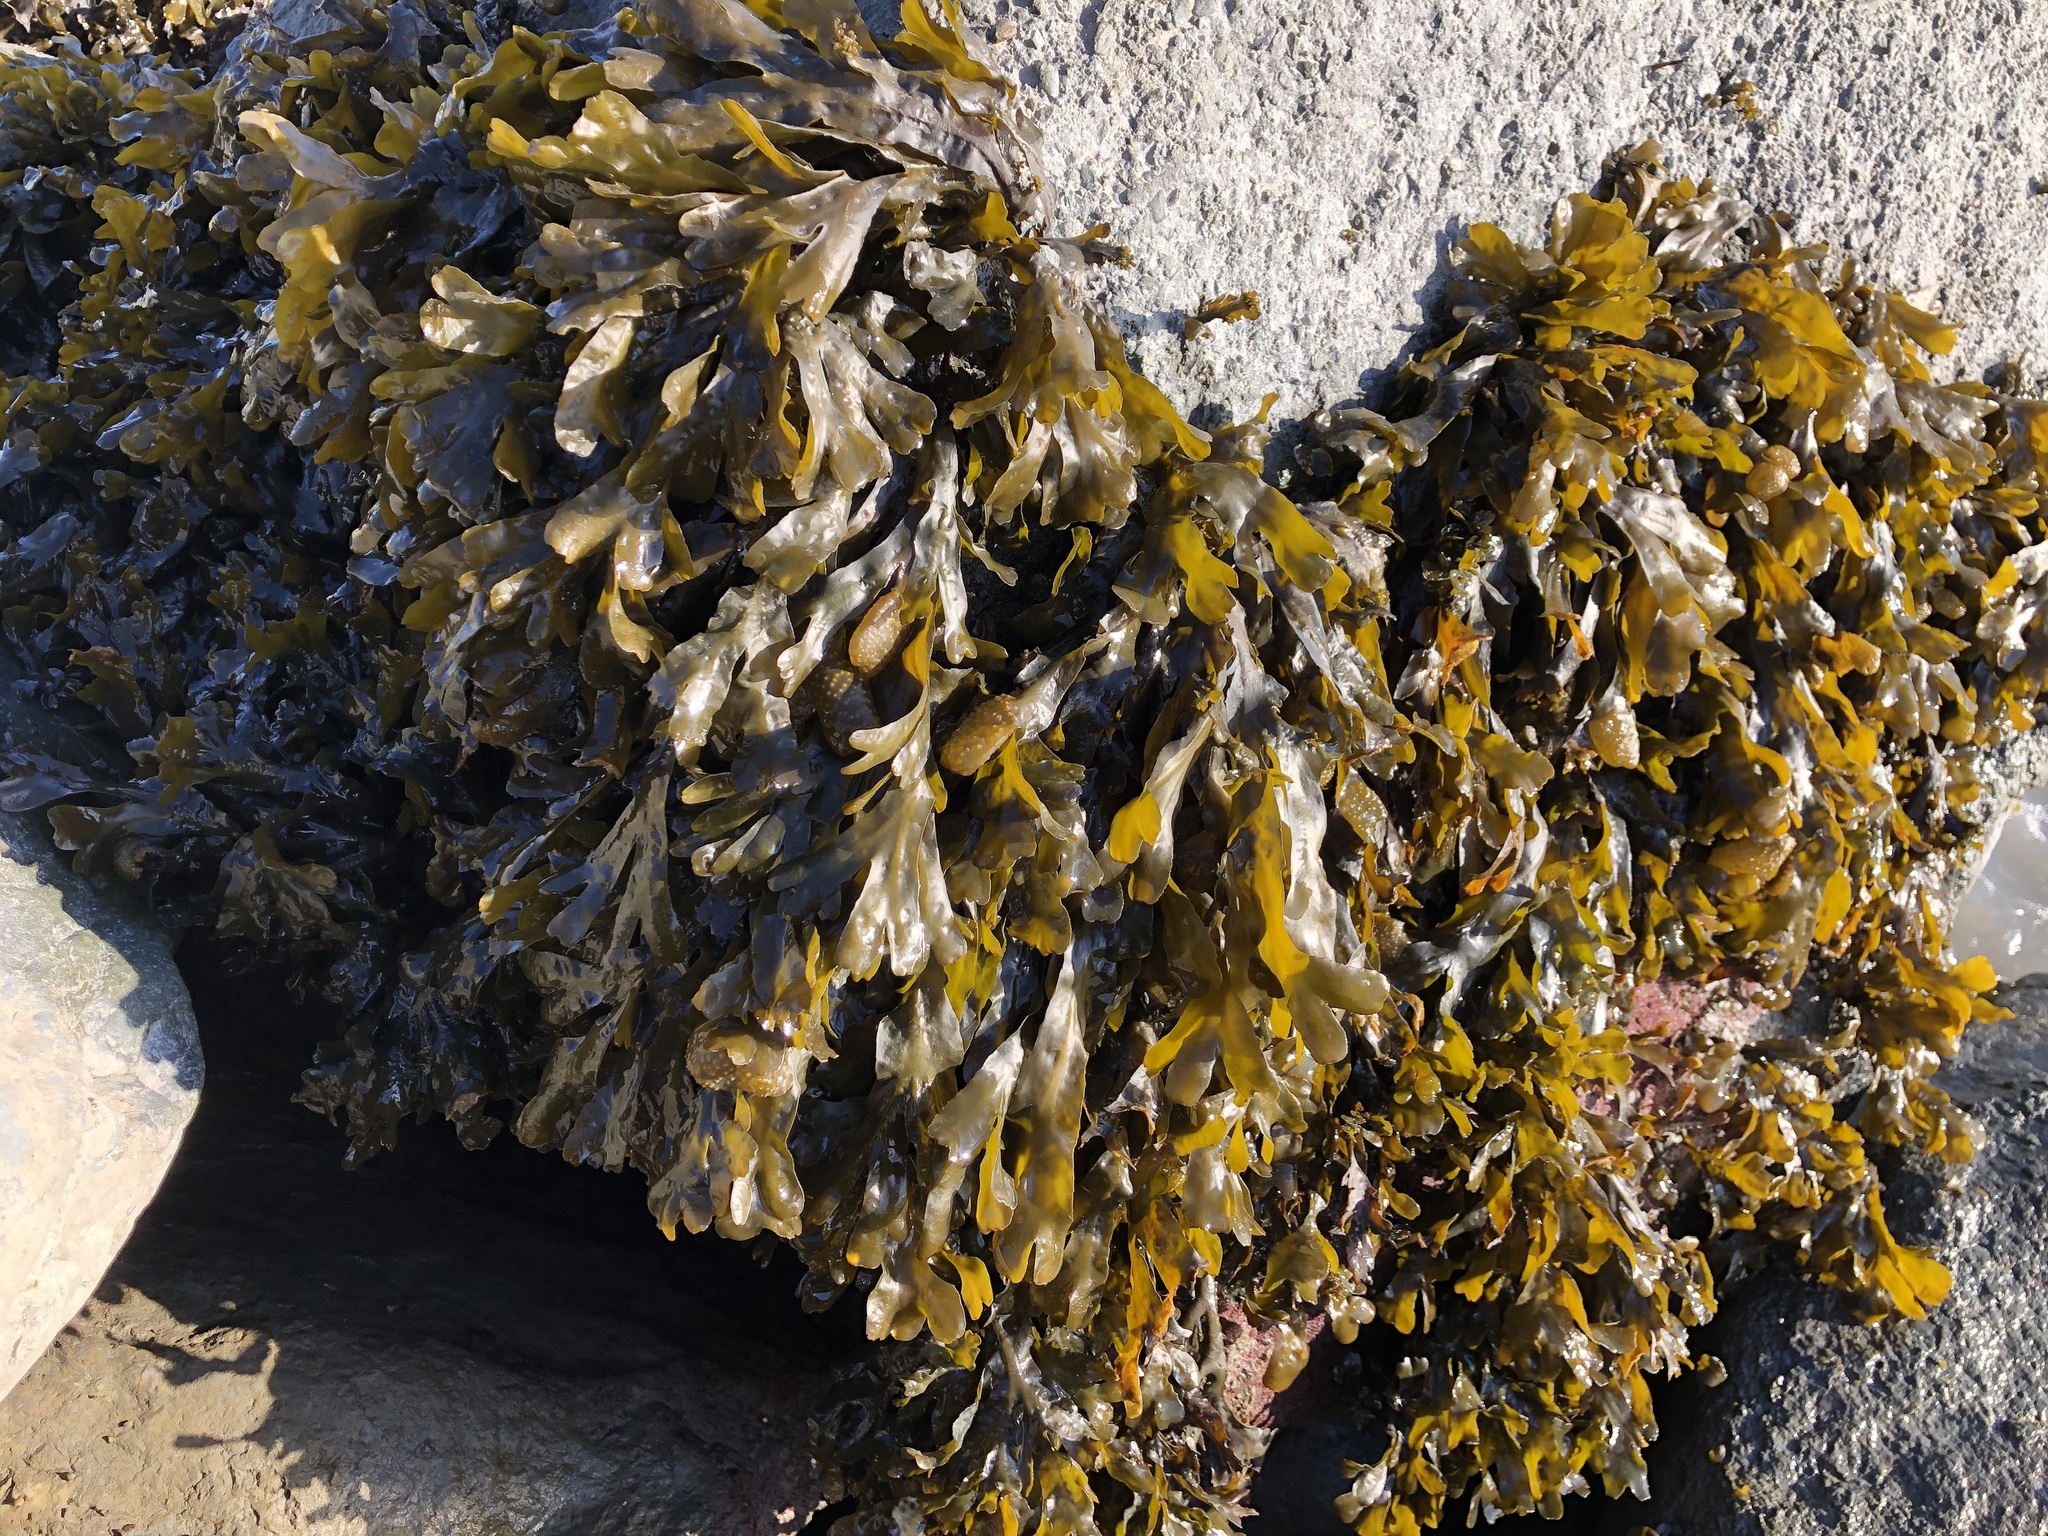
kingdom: Chromista
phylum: Ochrophyta
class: Phaeophyceae
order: Fucales
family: Fucaceae
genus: Fucus
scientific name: Fucus distichus
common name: Rockweed
